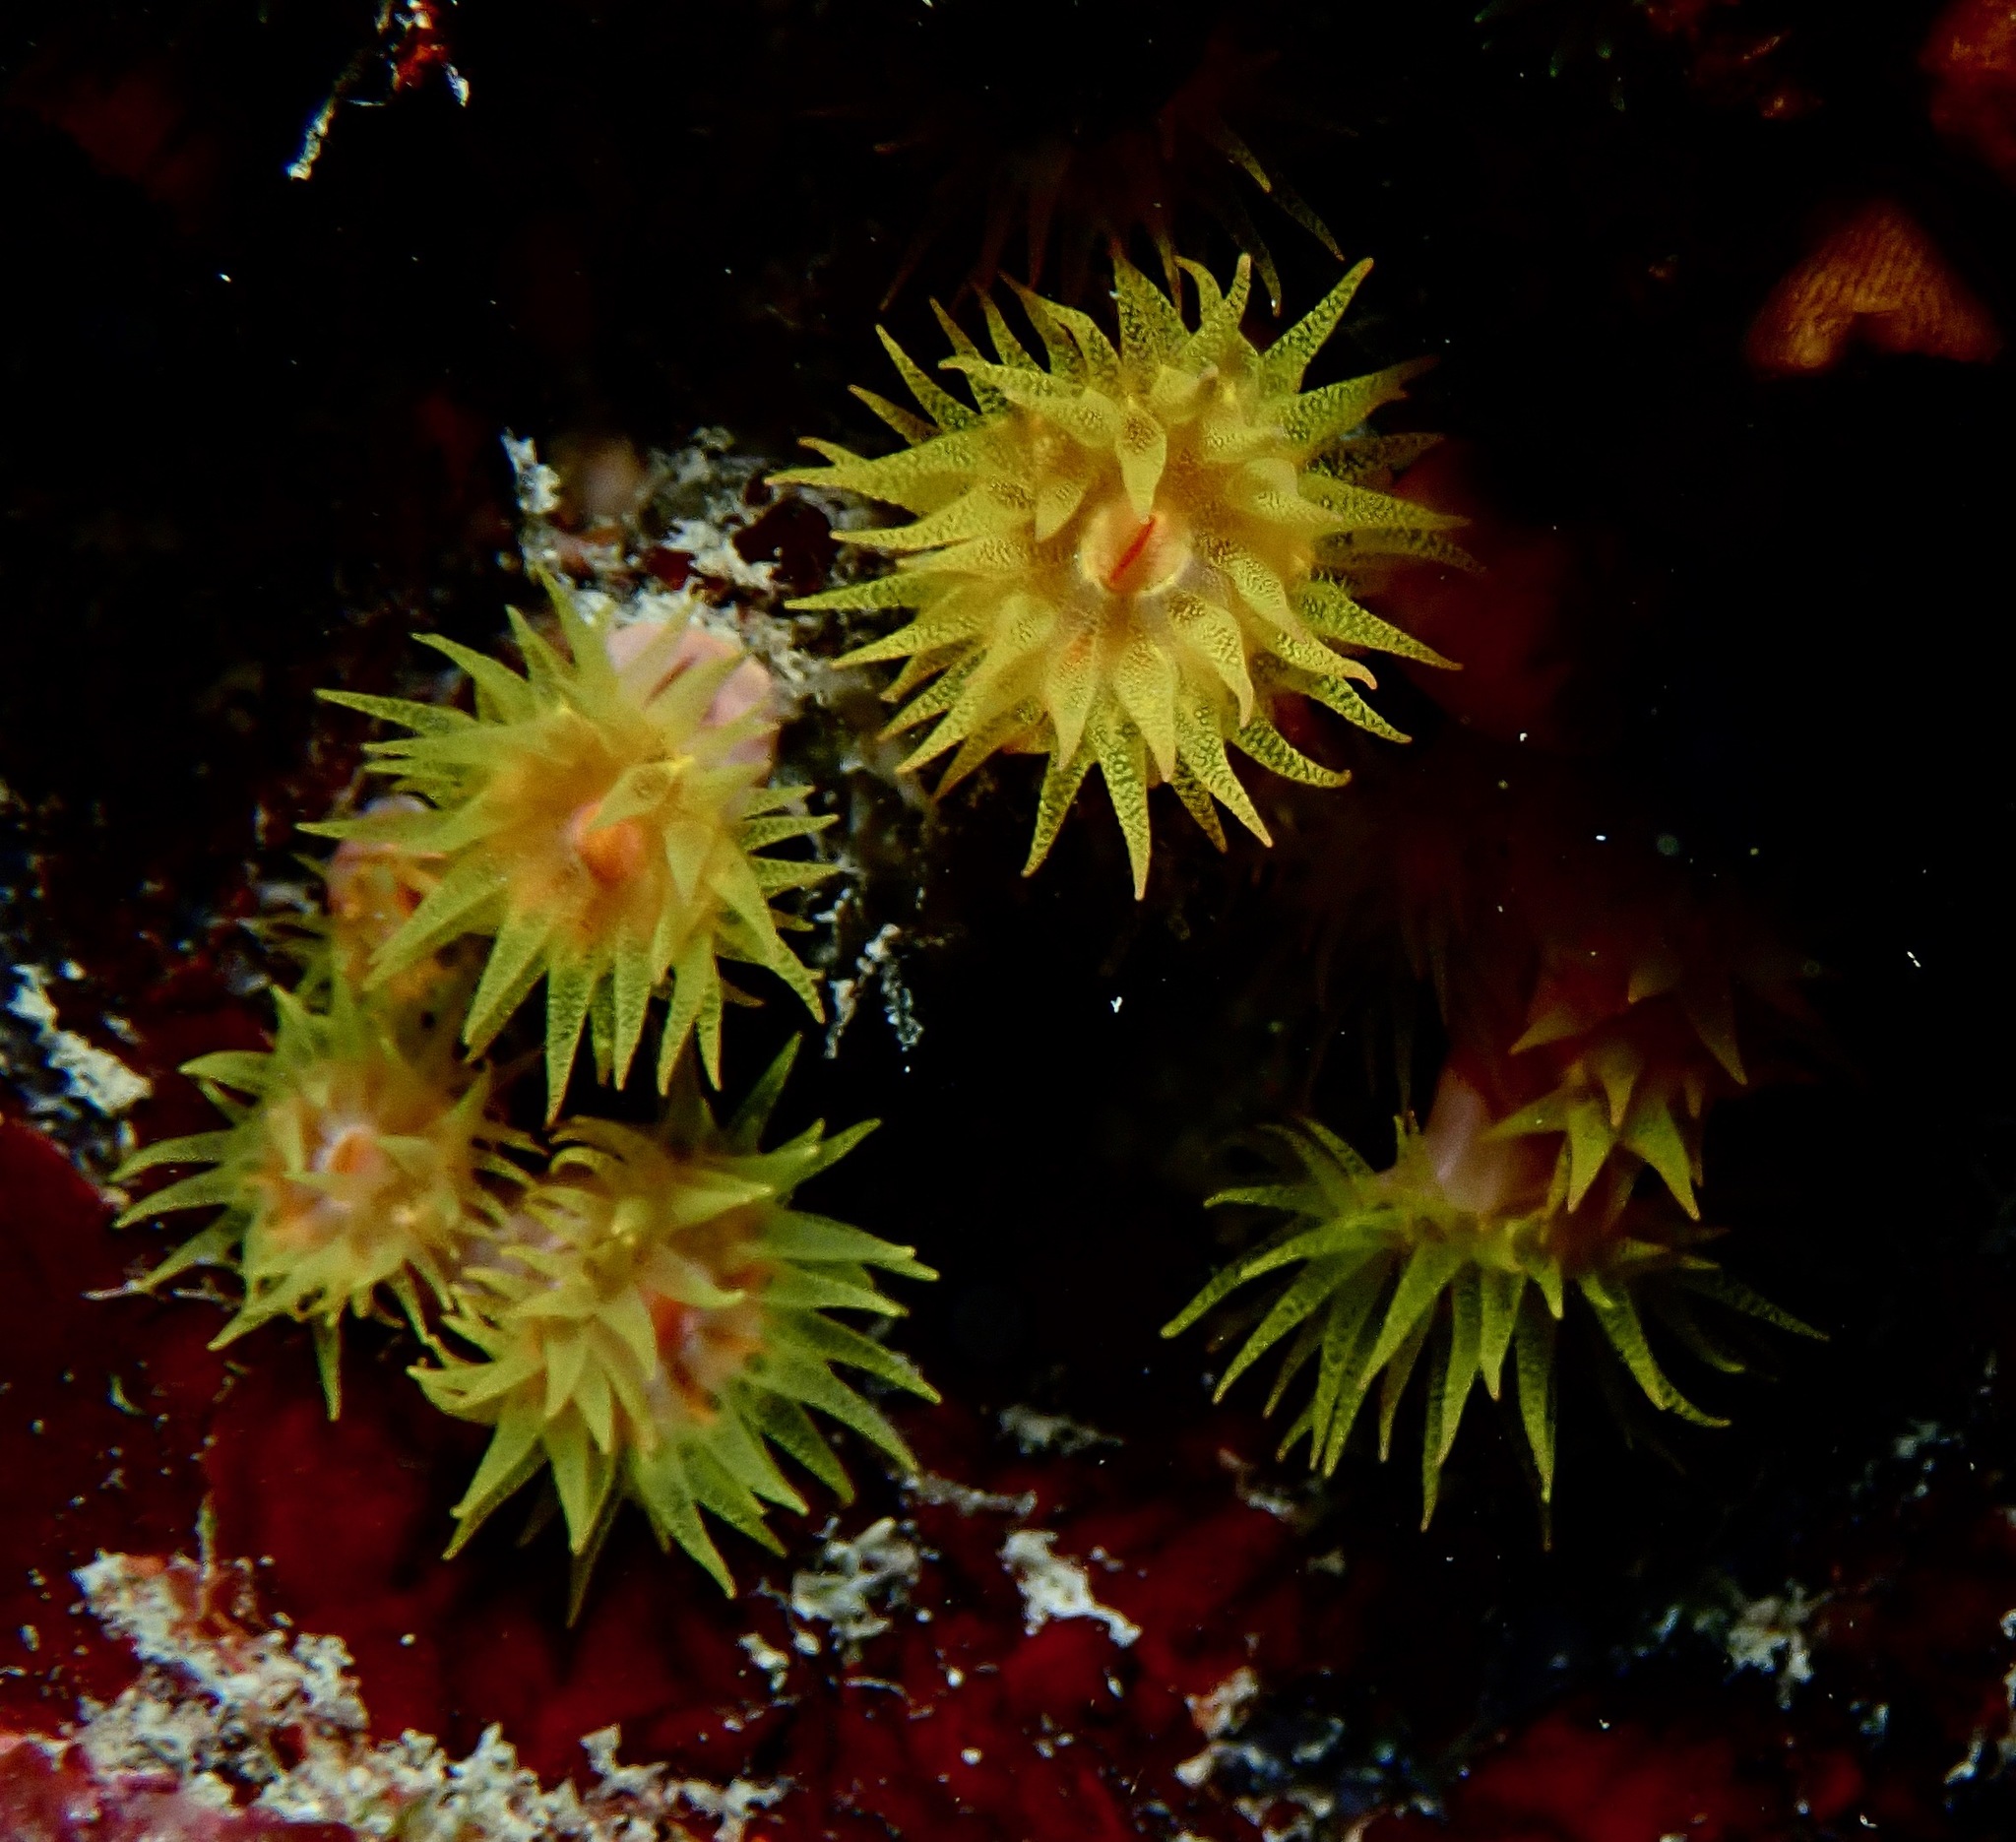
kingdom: Animalia
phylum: Cnidaria
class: Anthozoa
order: Scleractinia
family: Dendrophylliidae
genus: Cladopsammia
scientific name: Cladopsammia gracilis
